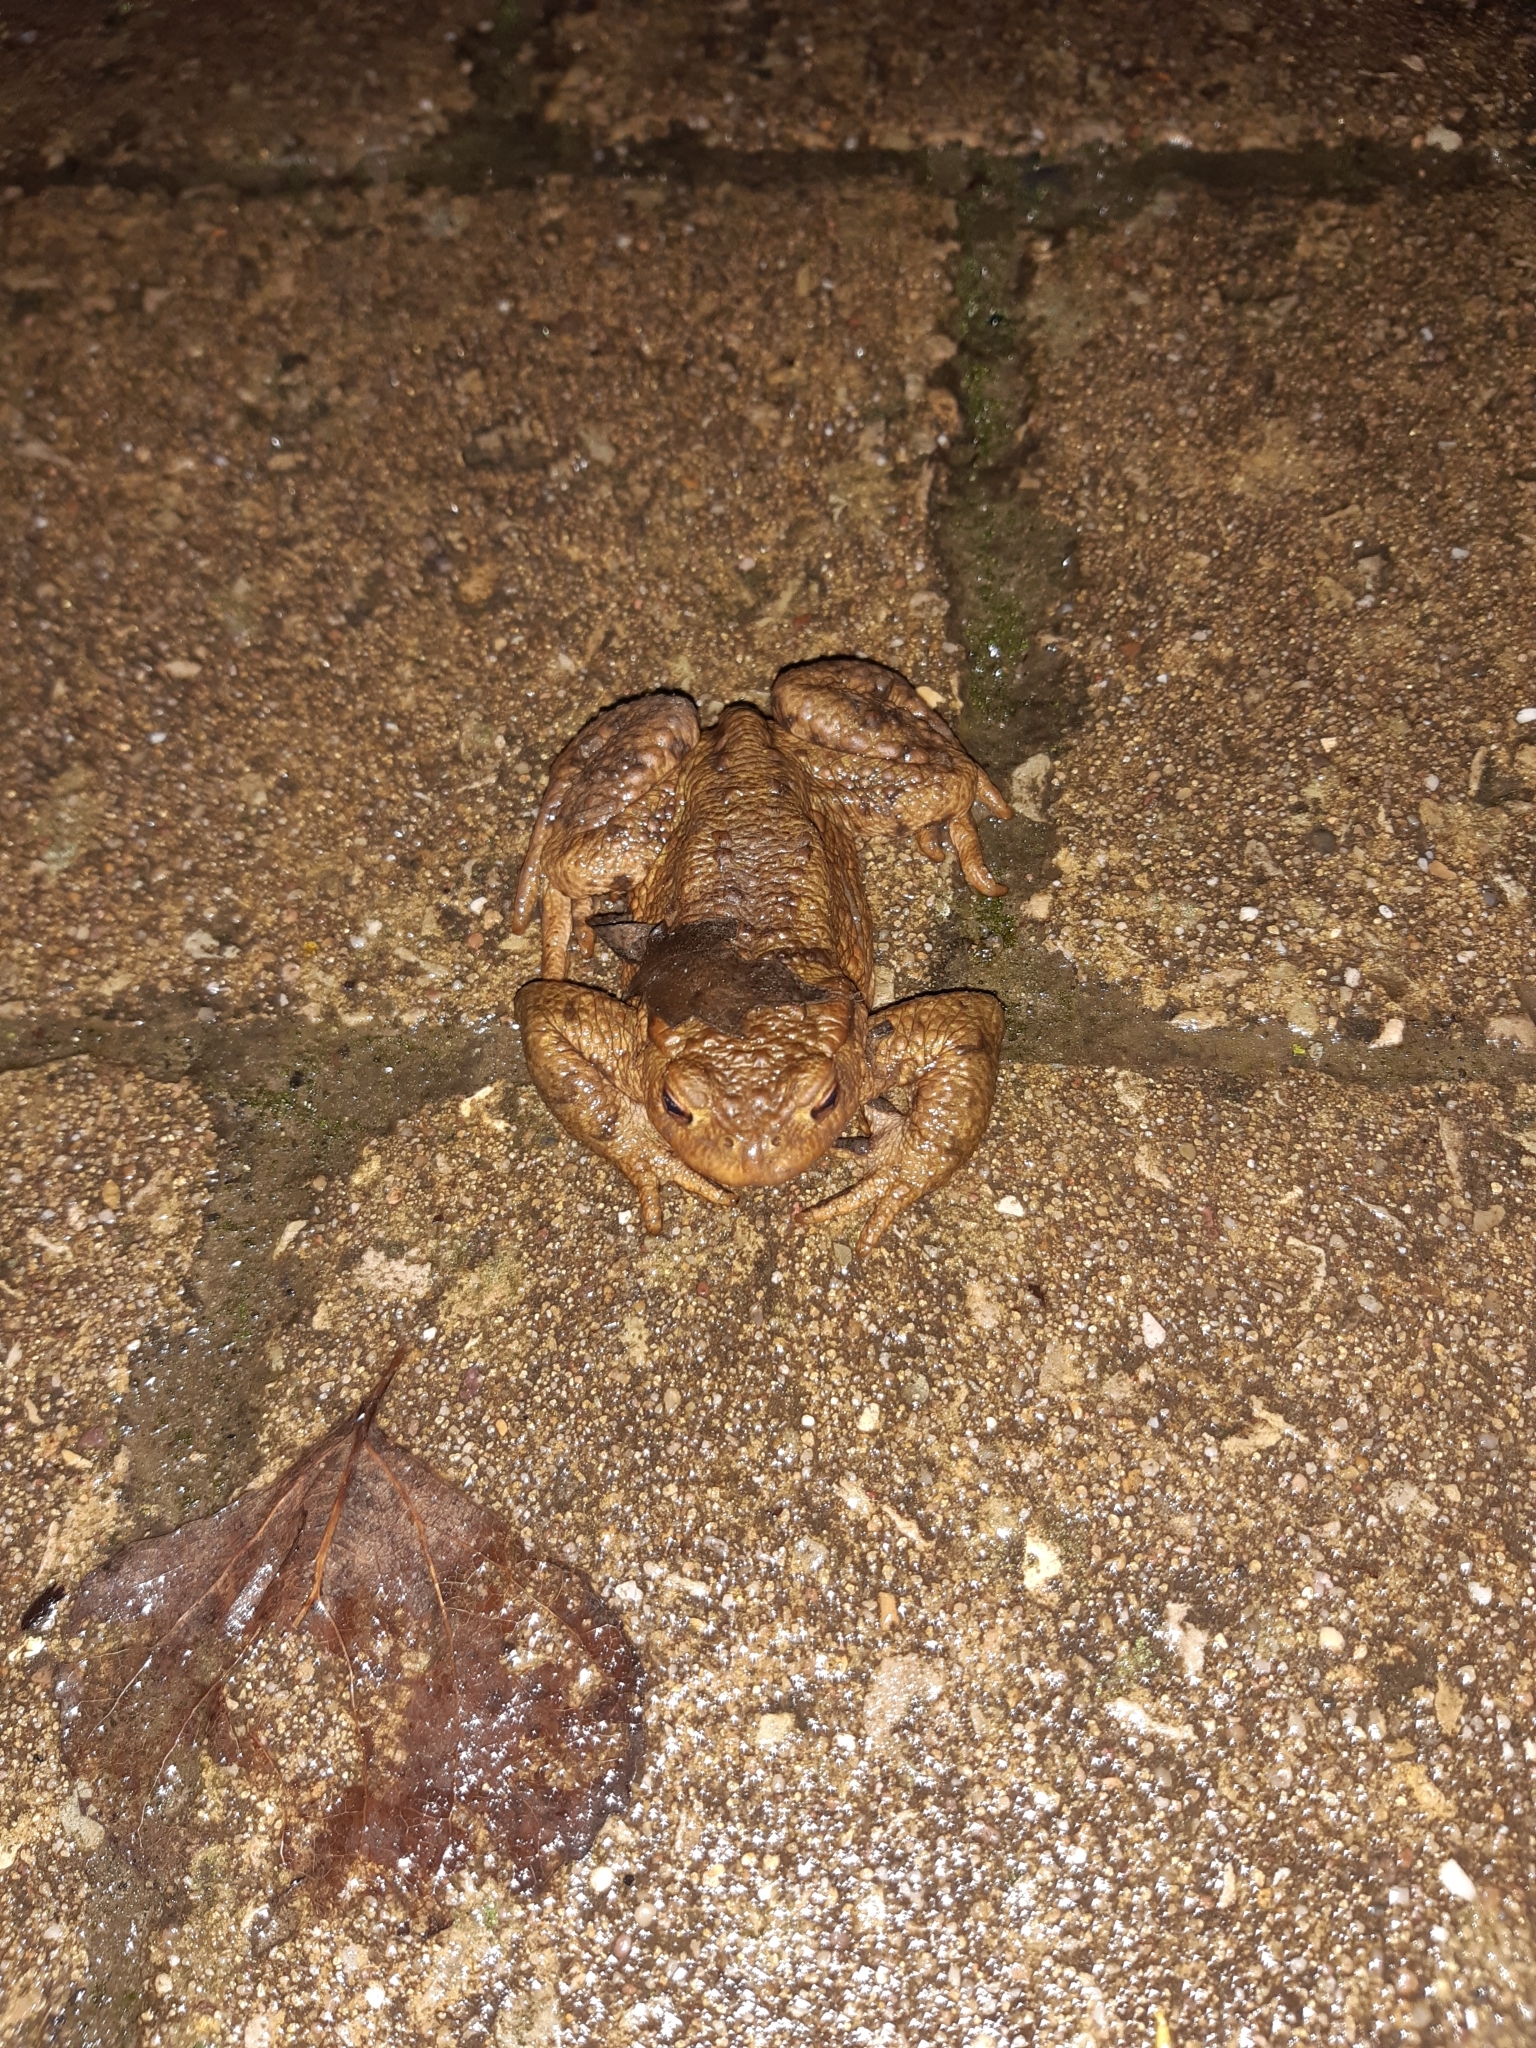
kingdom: Animalia
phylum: Chordata
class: Amphibia
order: Anura
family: Bufonidae
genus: Bufo
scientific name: Bufo bufo
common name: Common toad
